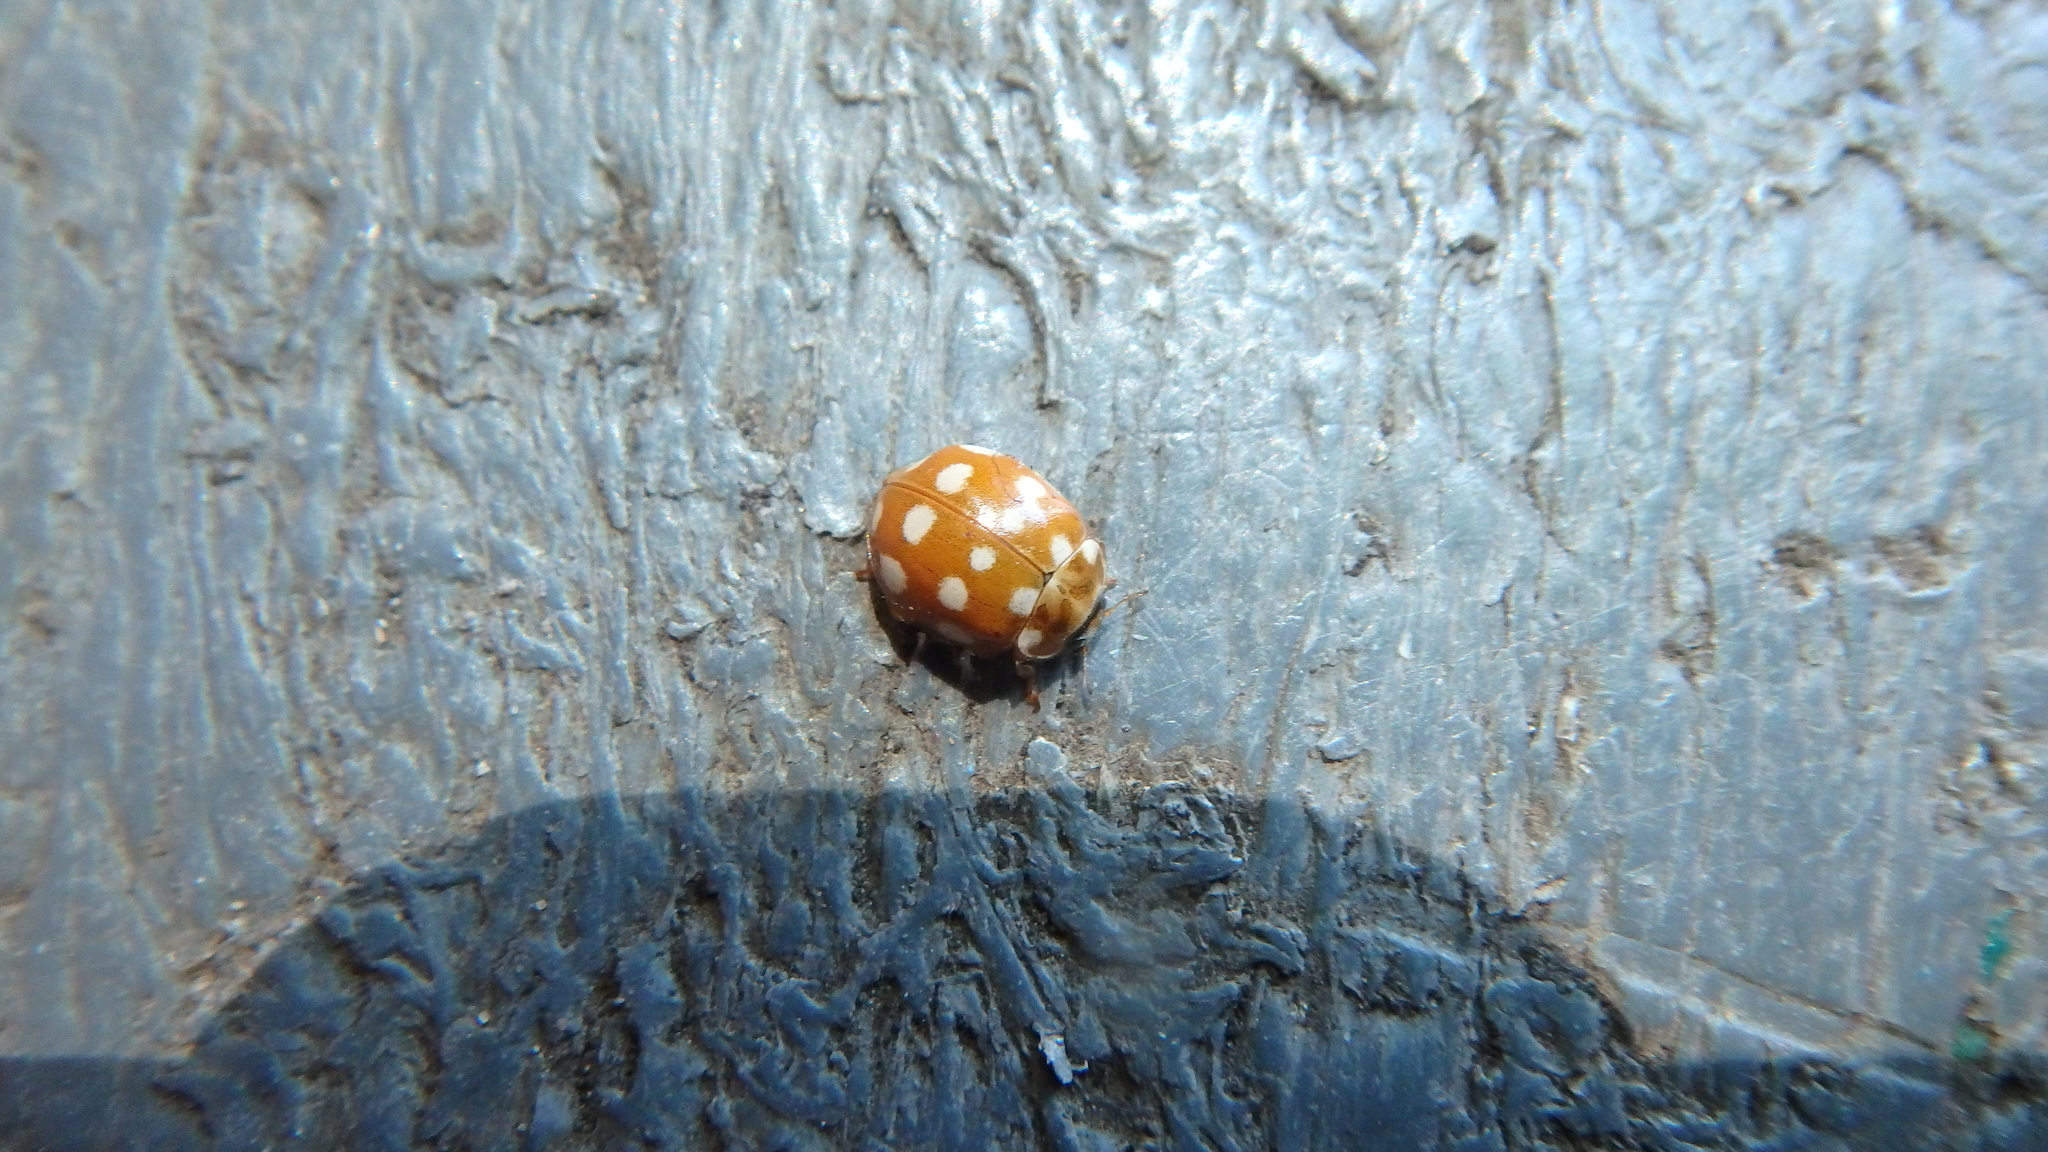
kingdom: Animalia
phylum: Arthropoda
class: Insecta
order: Coleoptera
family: Coccinellidae
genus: Calvia
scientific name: Calvia quatuordecimguttata
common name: Cream-spot ladybird
